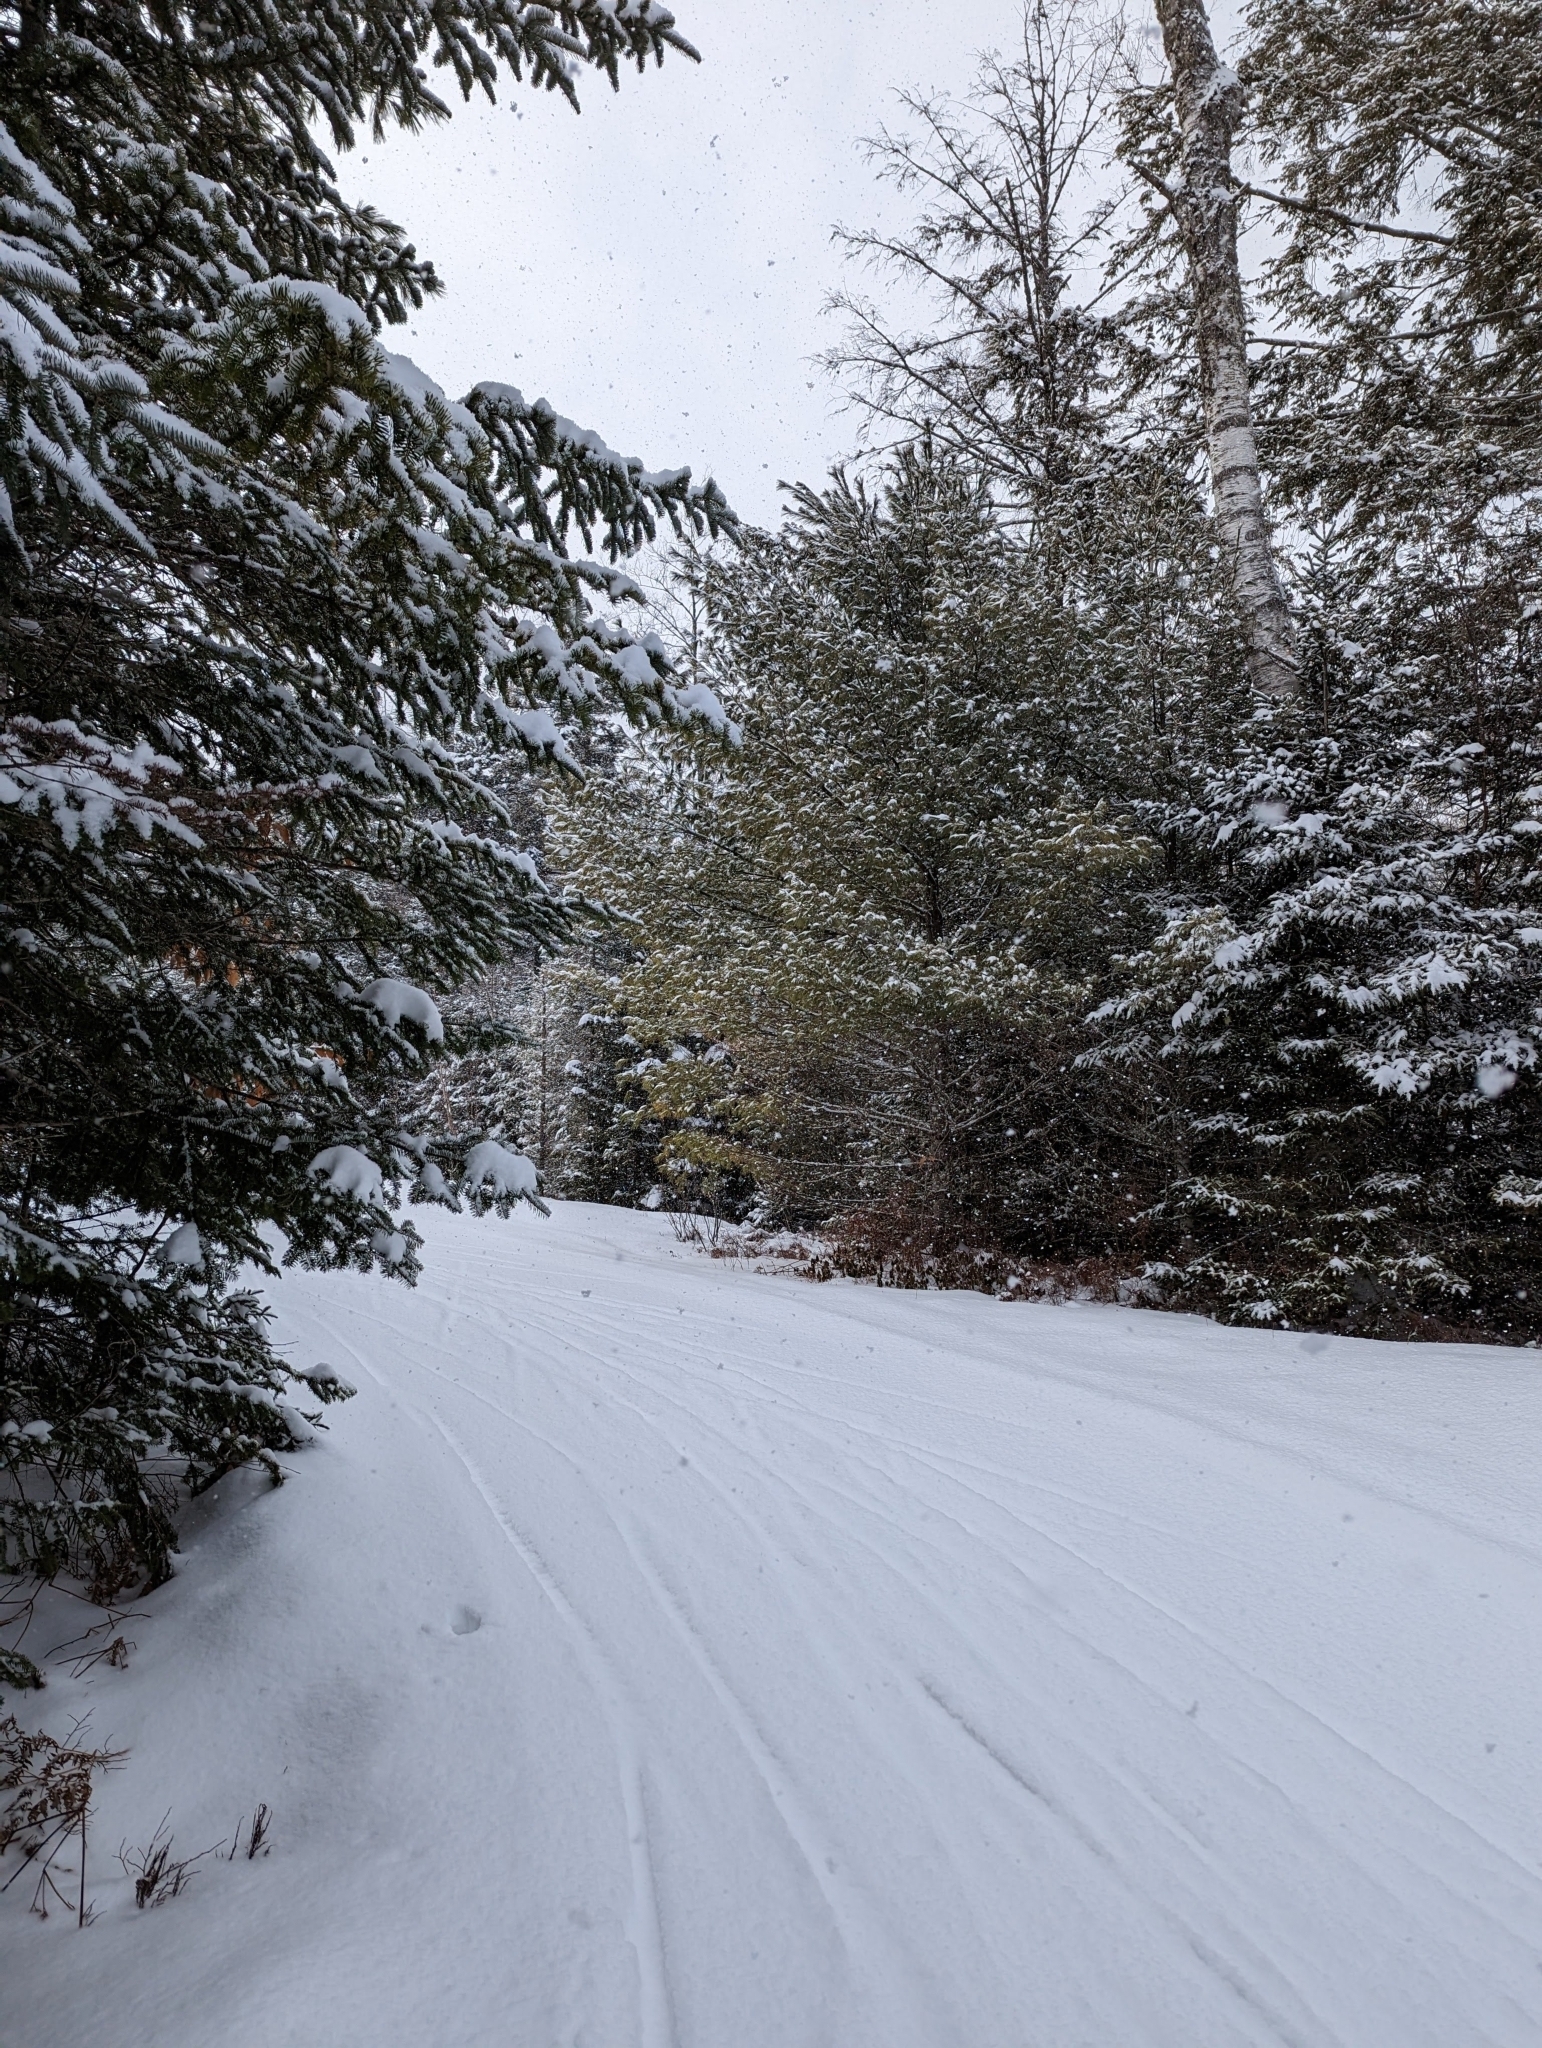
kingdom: Plantae
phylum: Tracheophyta
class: Pinopsida
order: Pinales
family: Pinaceae
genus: Pinus
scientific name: Pinus strobus
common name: Weymouth pine
